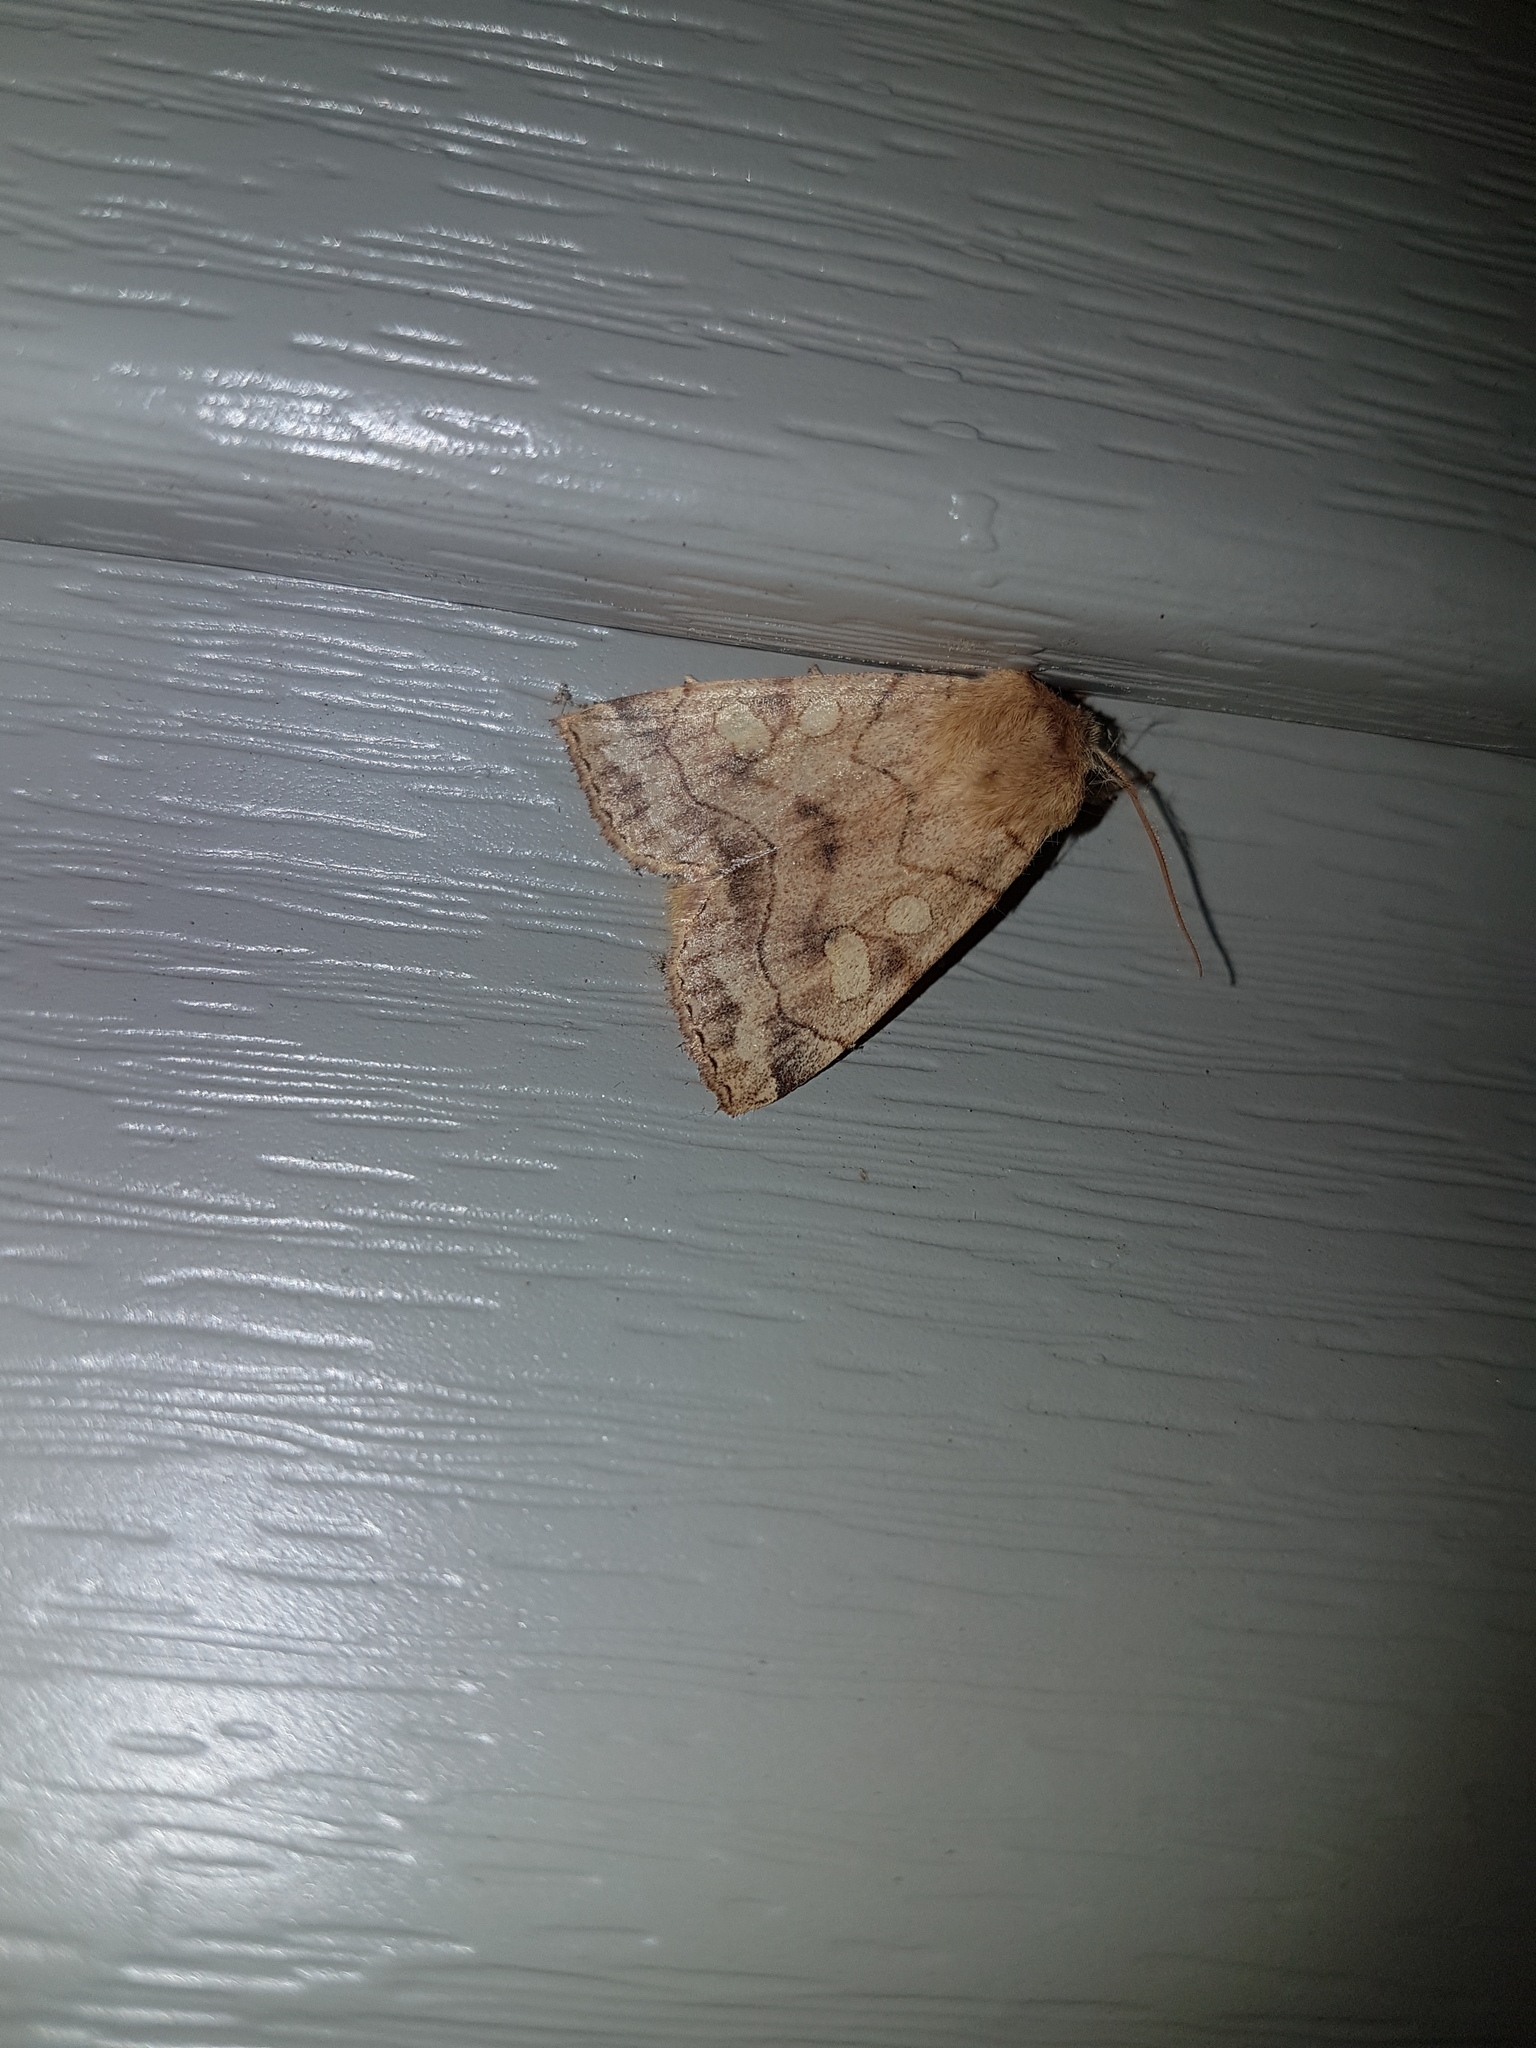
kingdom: Animalia
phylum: Arthropoda
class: Insecta
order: Lepidoptera
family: Noctuidae
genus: Enargia
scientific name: Enargia decolor
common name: Aspen twoleaf tier moth
